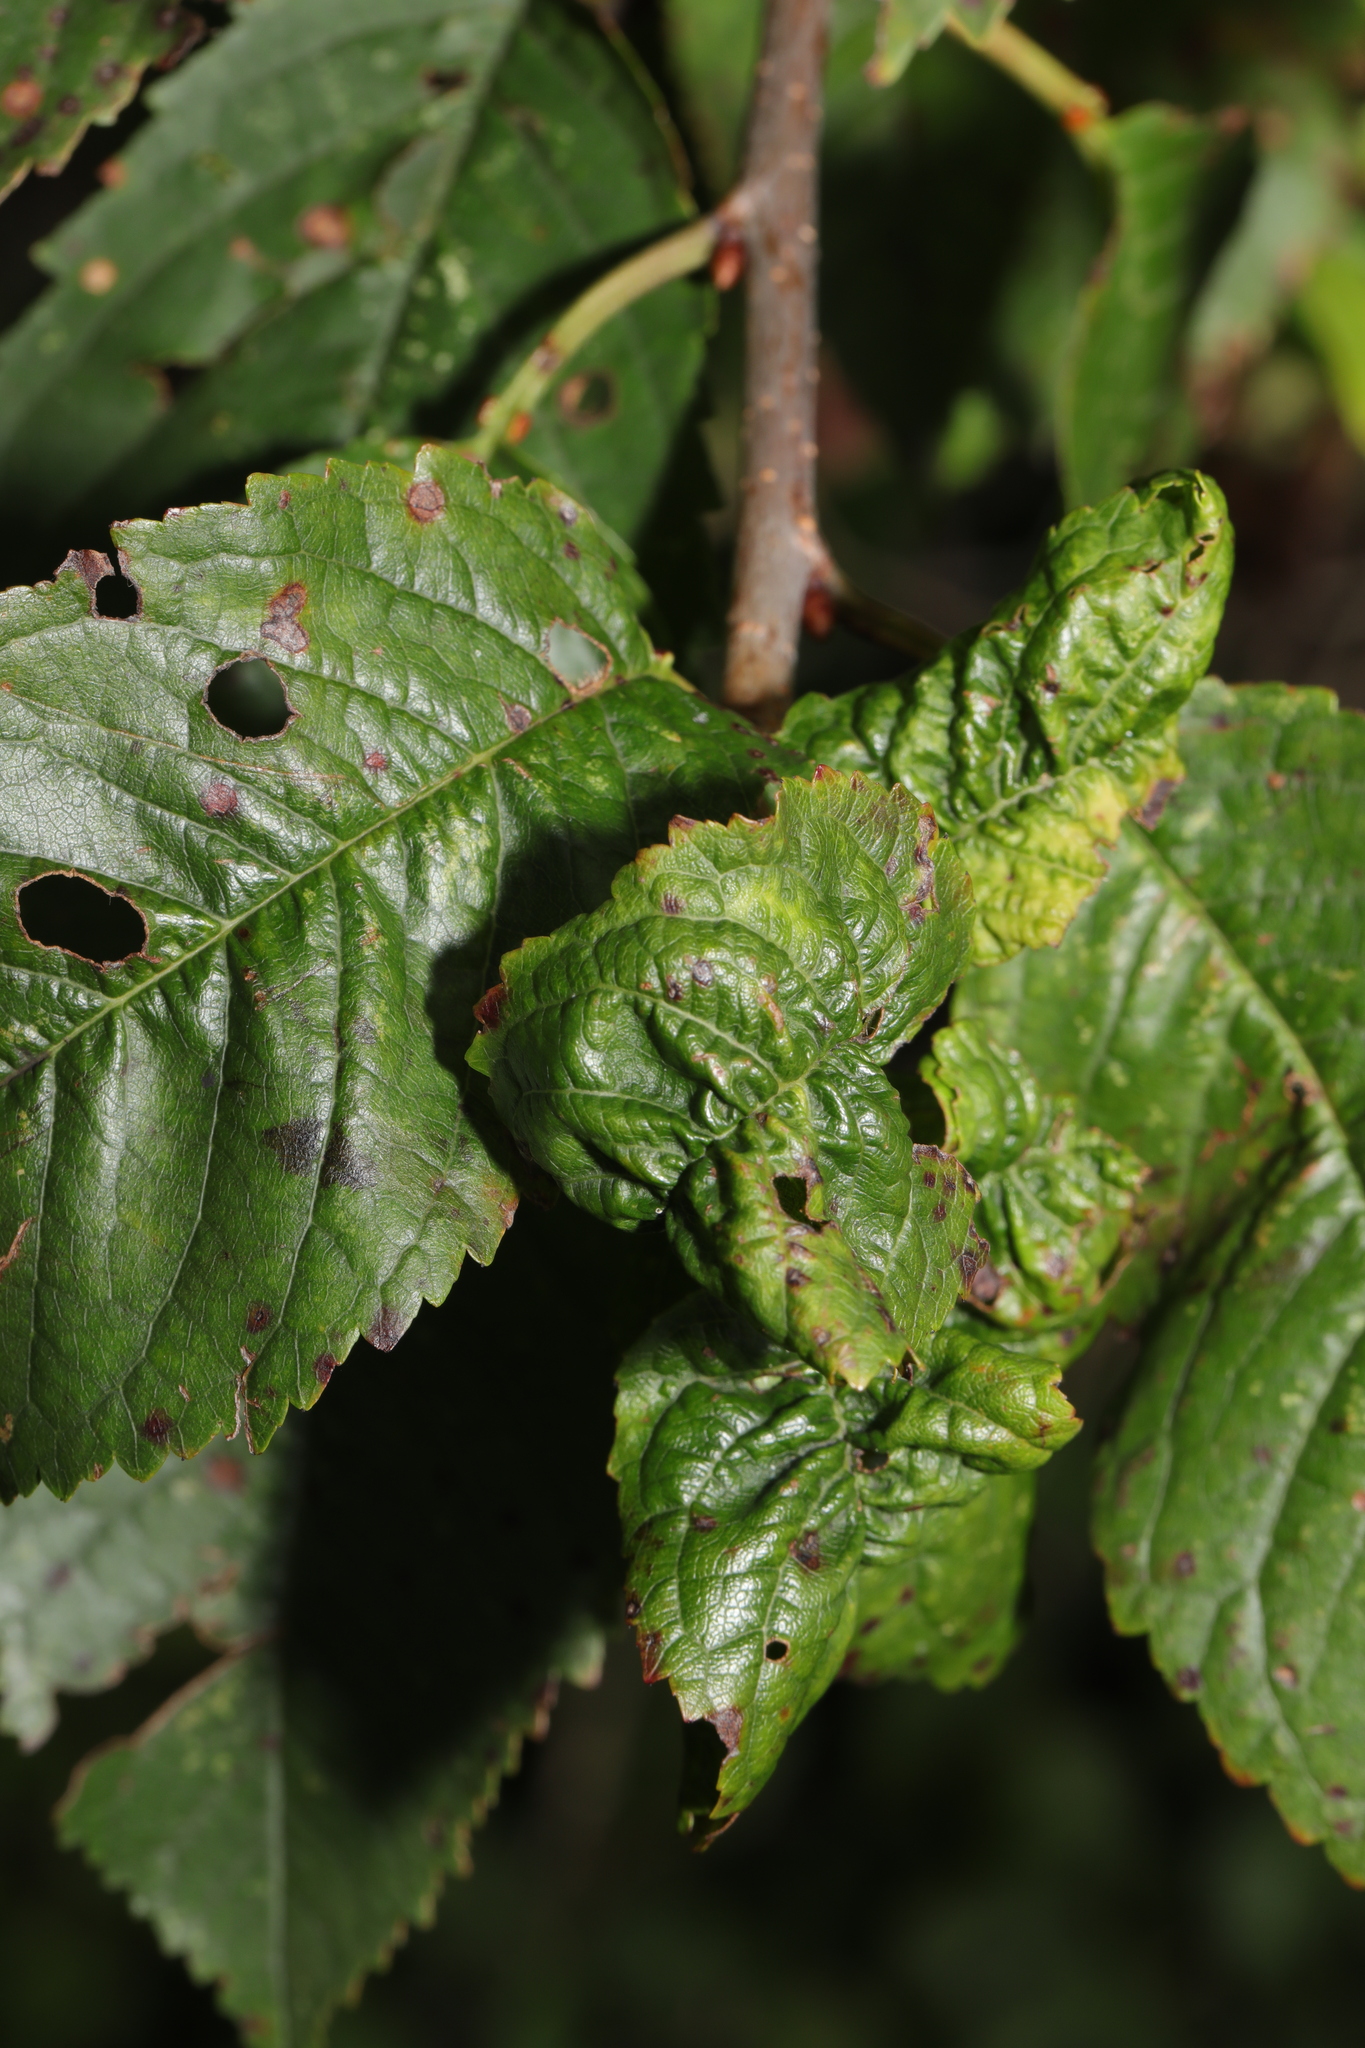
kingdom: Animalia
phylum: Arthropoda
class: Insecta
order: Hemiptera
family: Aphididae
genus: Myzus
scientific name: Myzus cerasi
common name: Black cherry aphid
